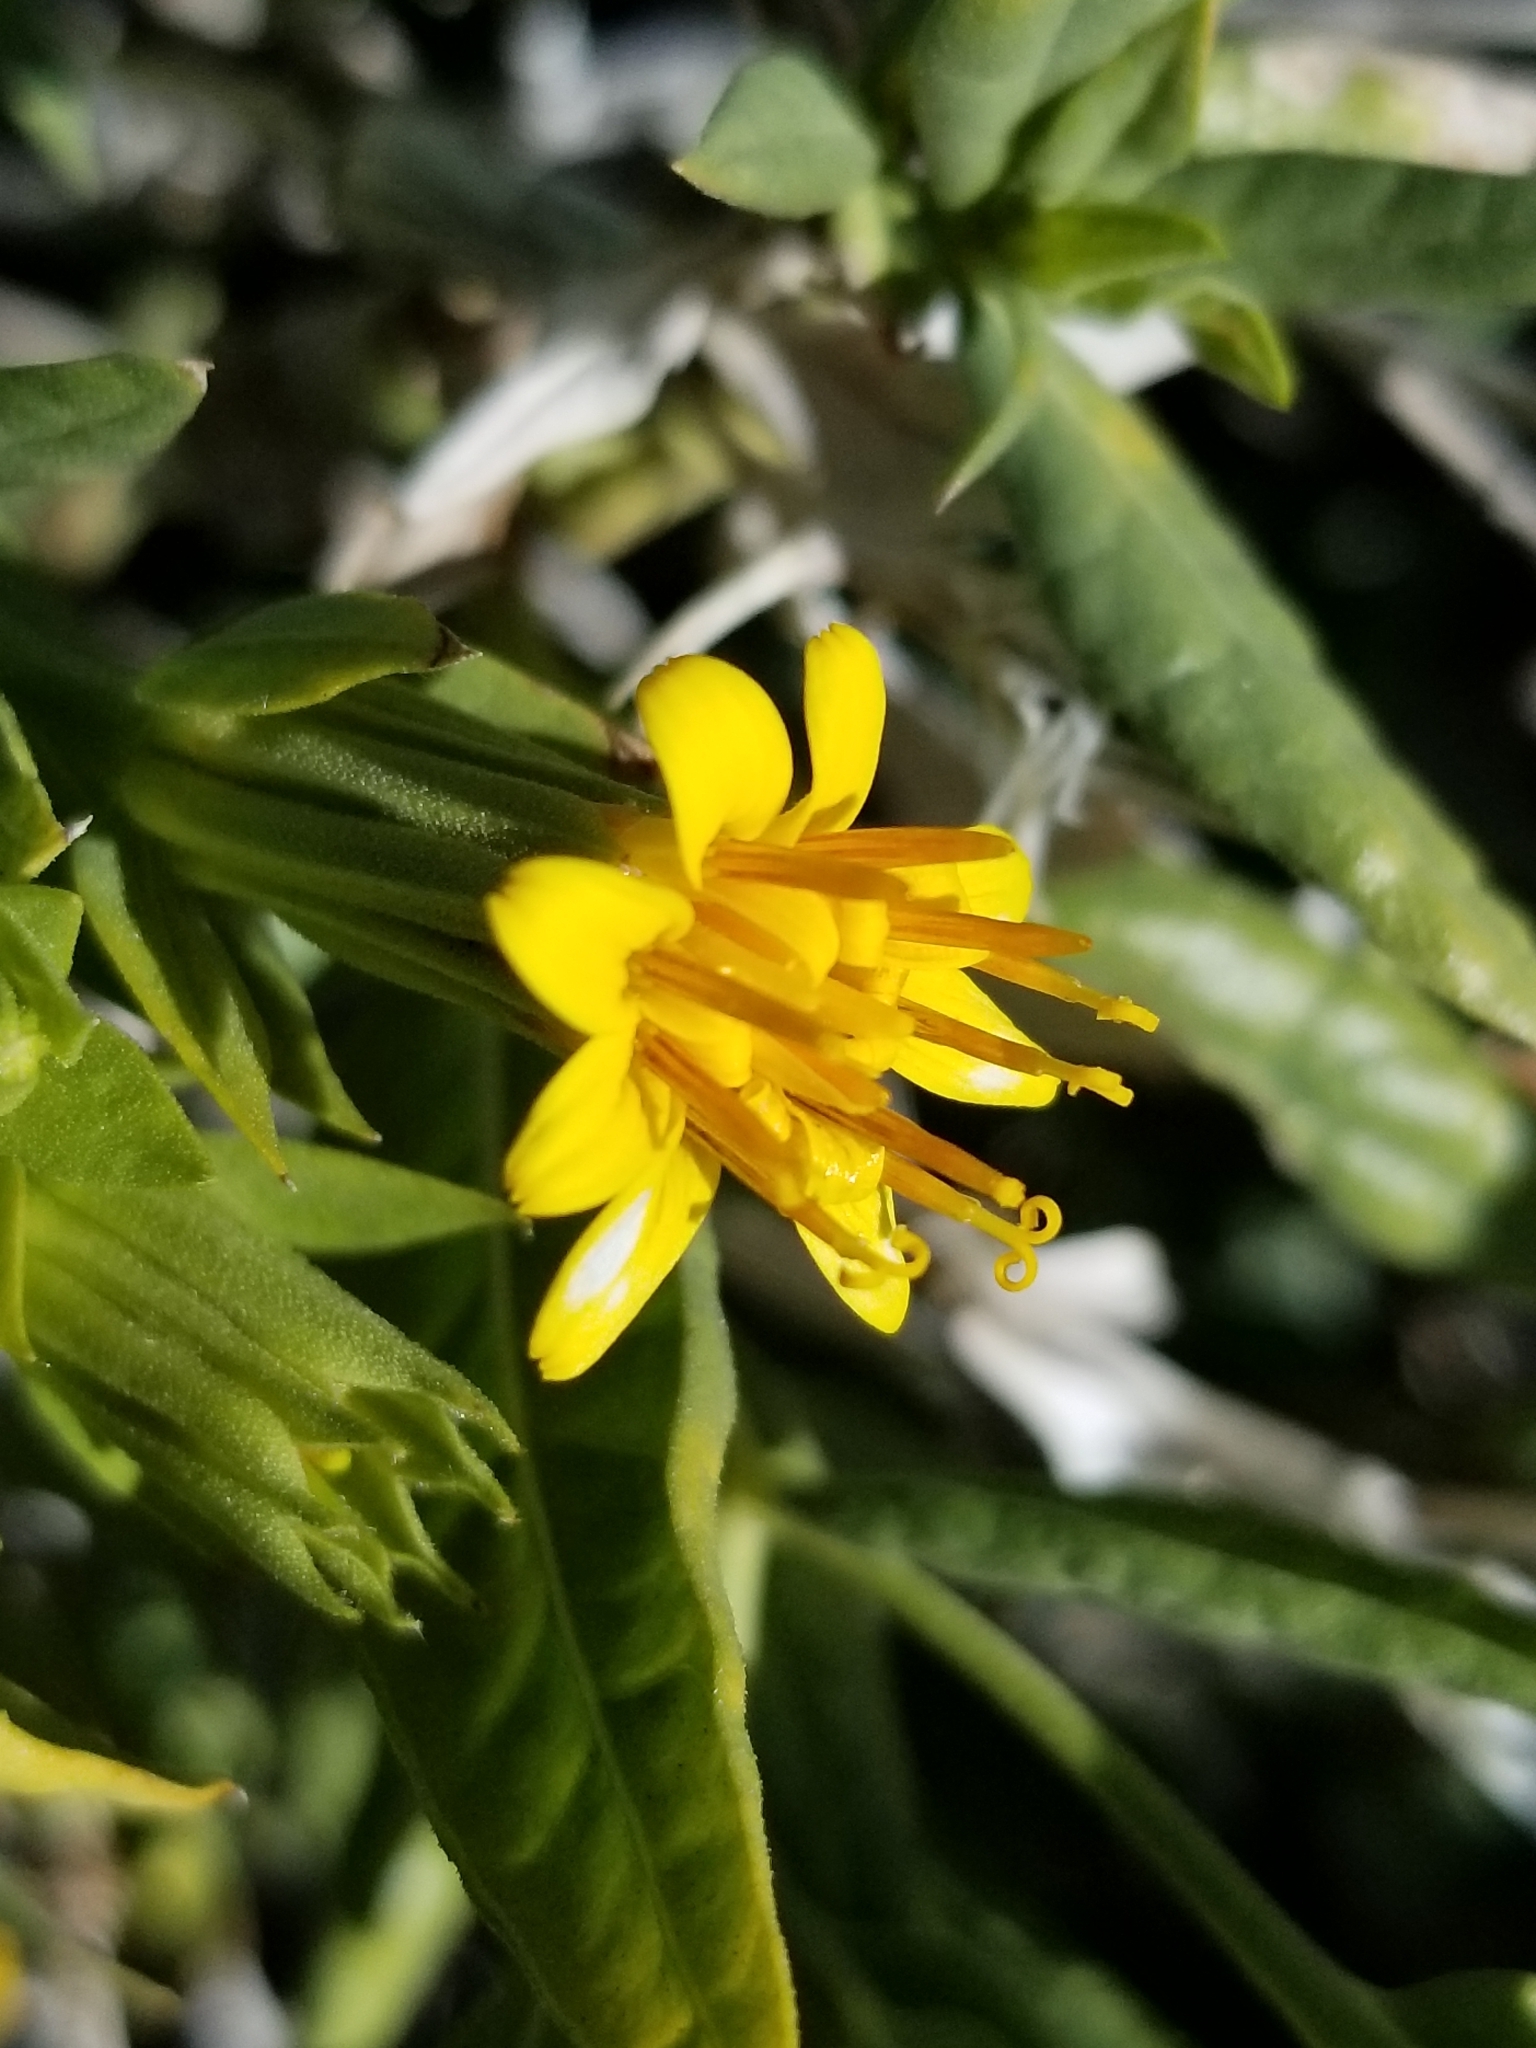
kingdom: Plantae
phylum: Tracheophyta
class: Magnoliopsida
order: Asterales
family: Asteraceae
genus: Trixis
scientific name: Trixis californica
